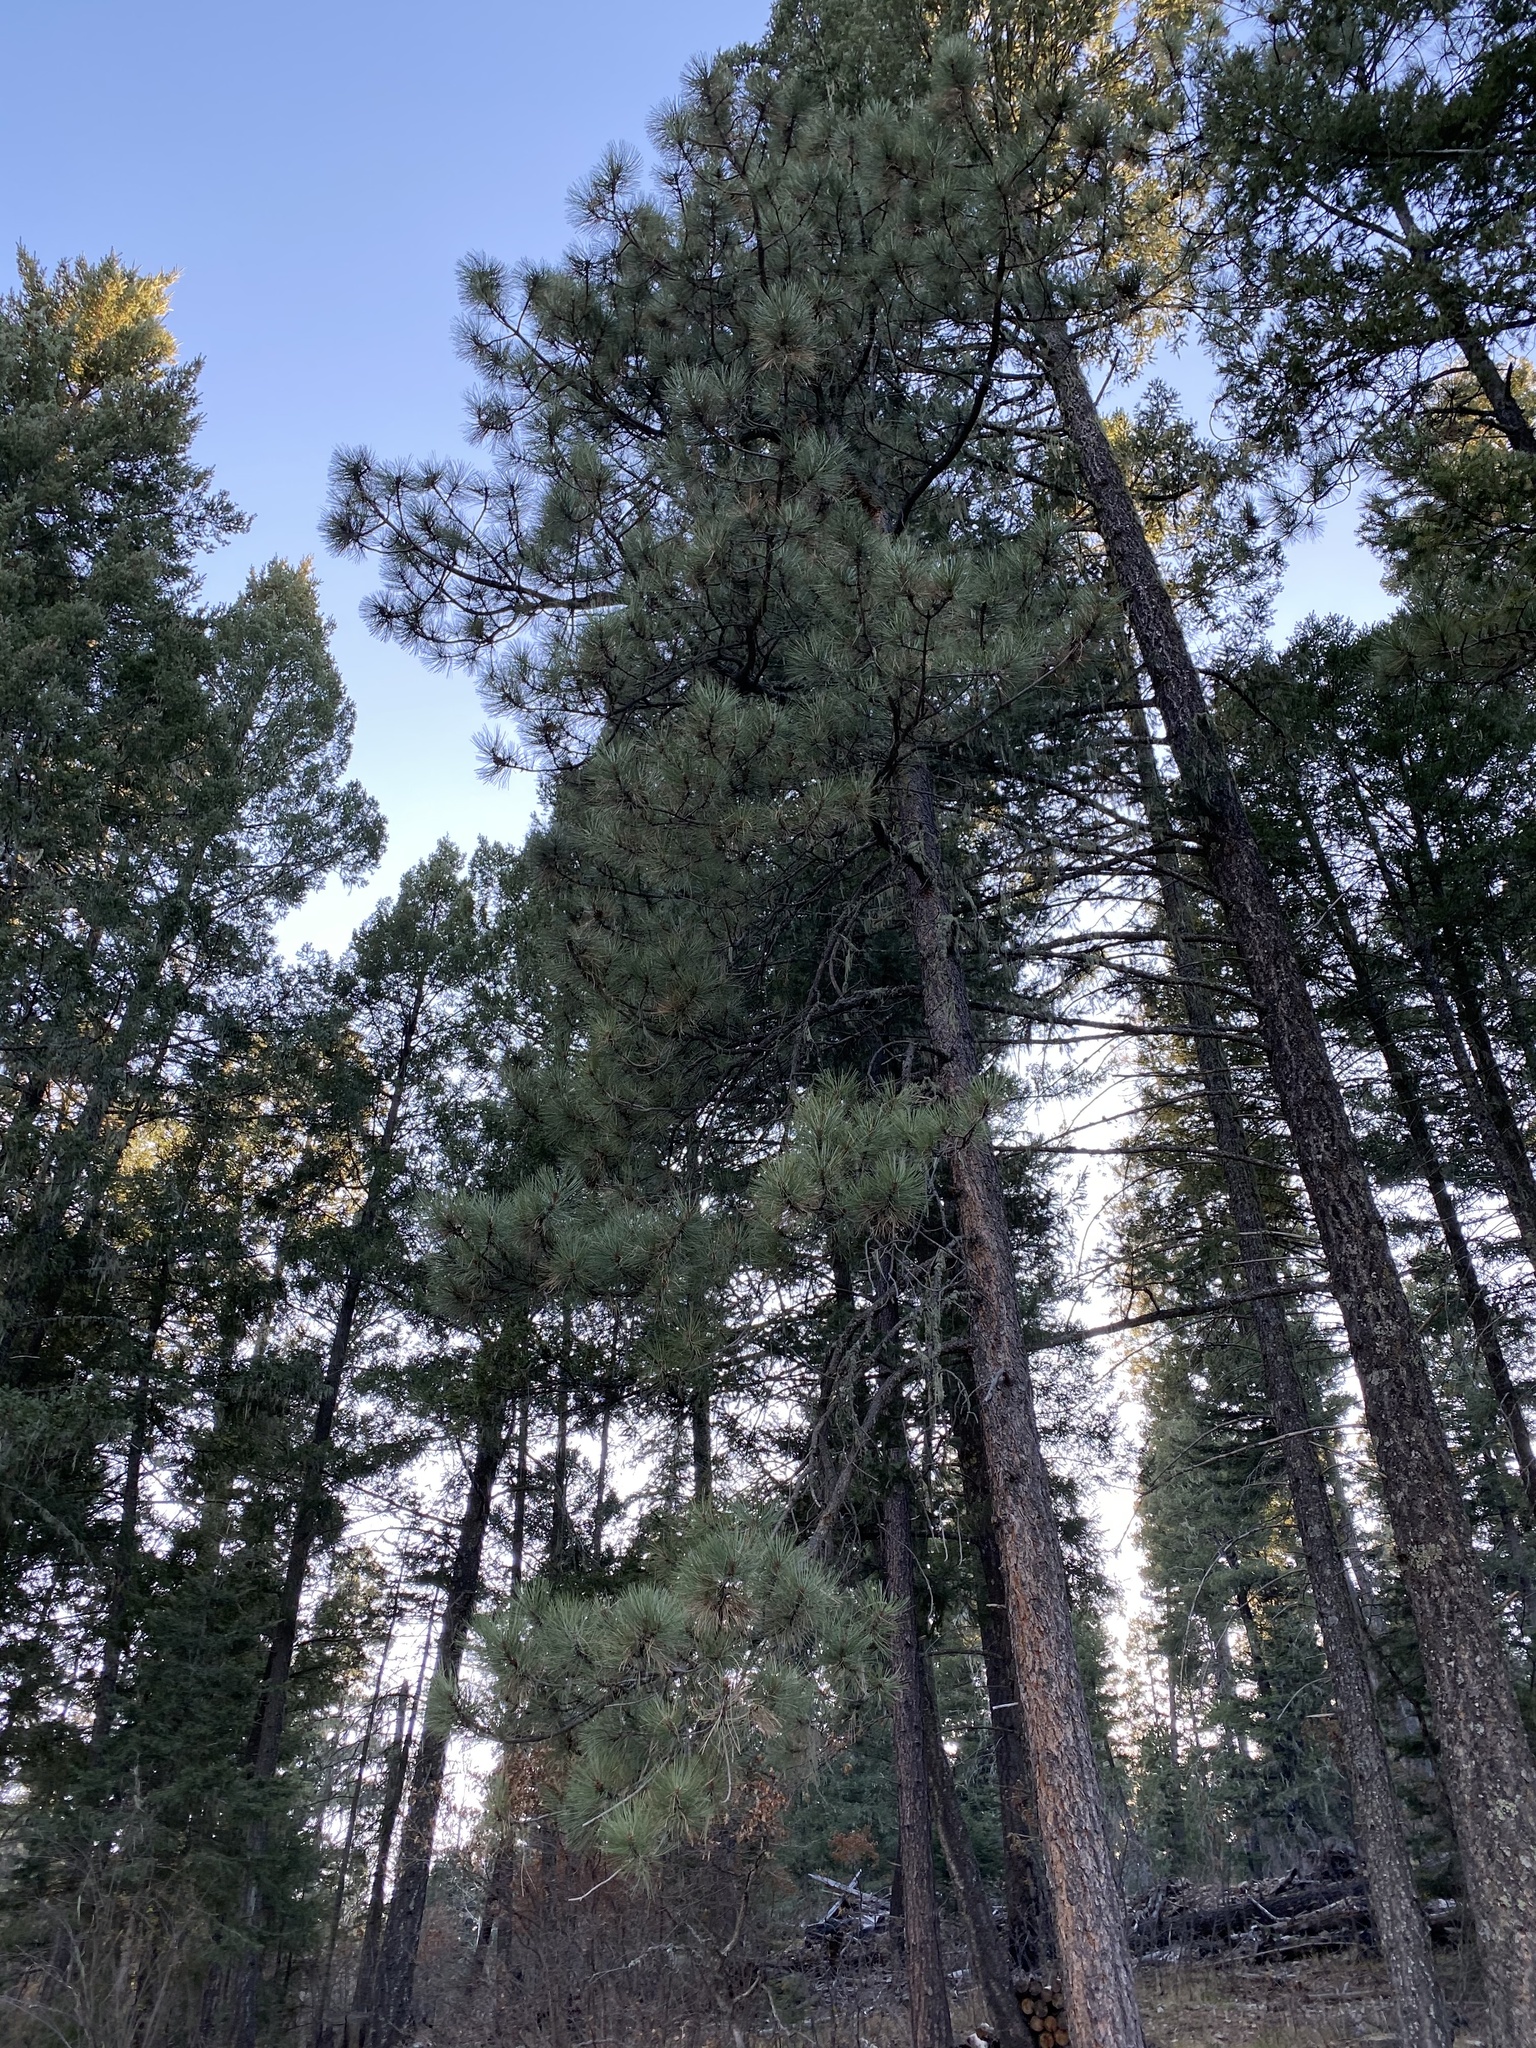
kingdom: Plantae
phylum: Tracheophyta
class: Pinopsida
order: Pinales
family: Pinaceae
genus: Pinus
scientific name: Pinus ponderosa
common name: Western yellow-pine
